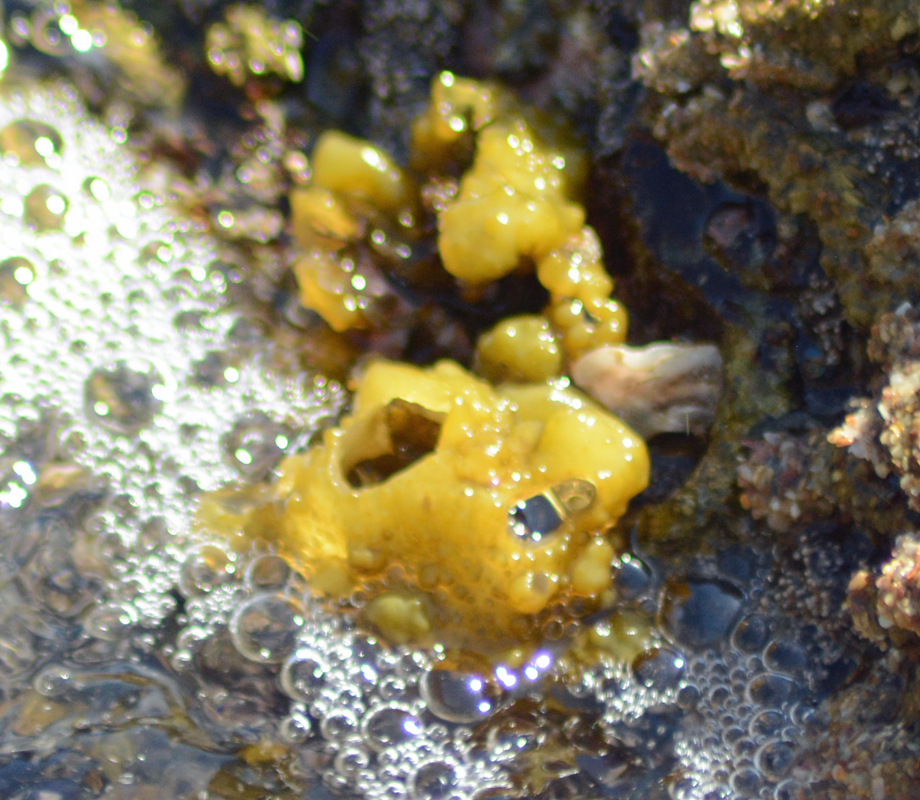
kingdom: Chromista
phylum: Ochrophyta
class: Phaeophyceae
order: Scytosiphonales
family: Scytosiphonaceae
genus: Colpomenia
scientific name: Colpomenia
